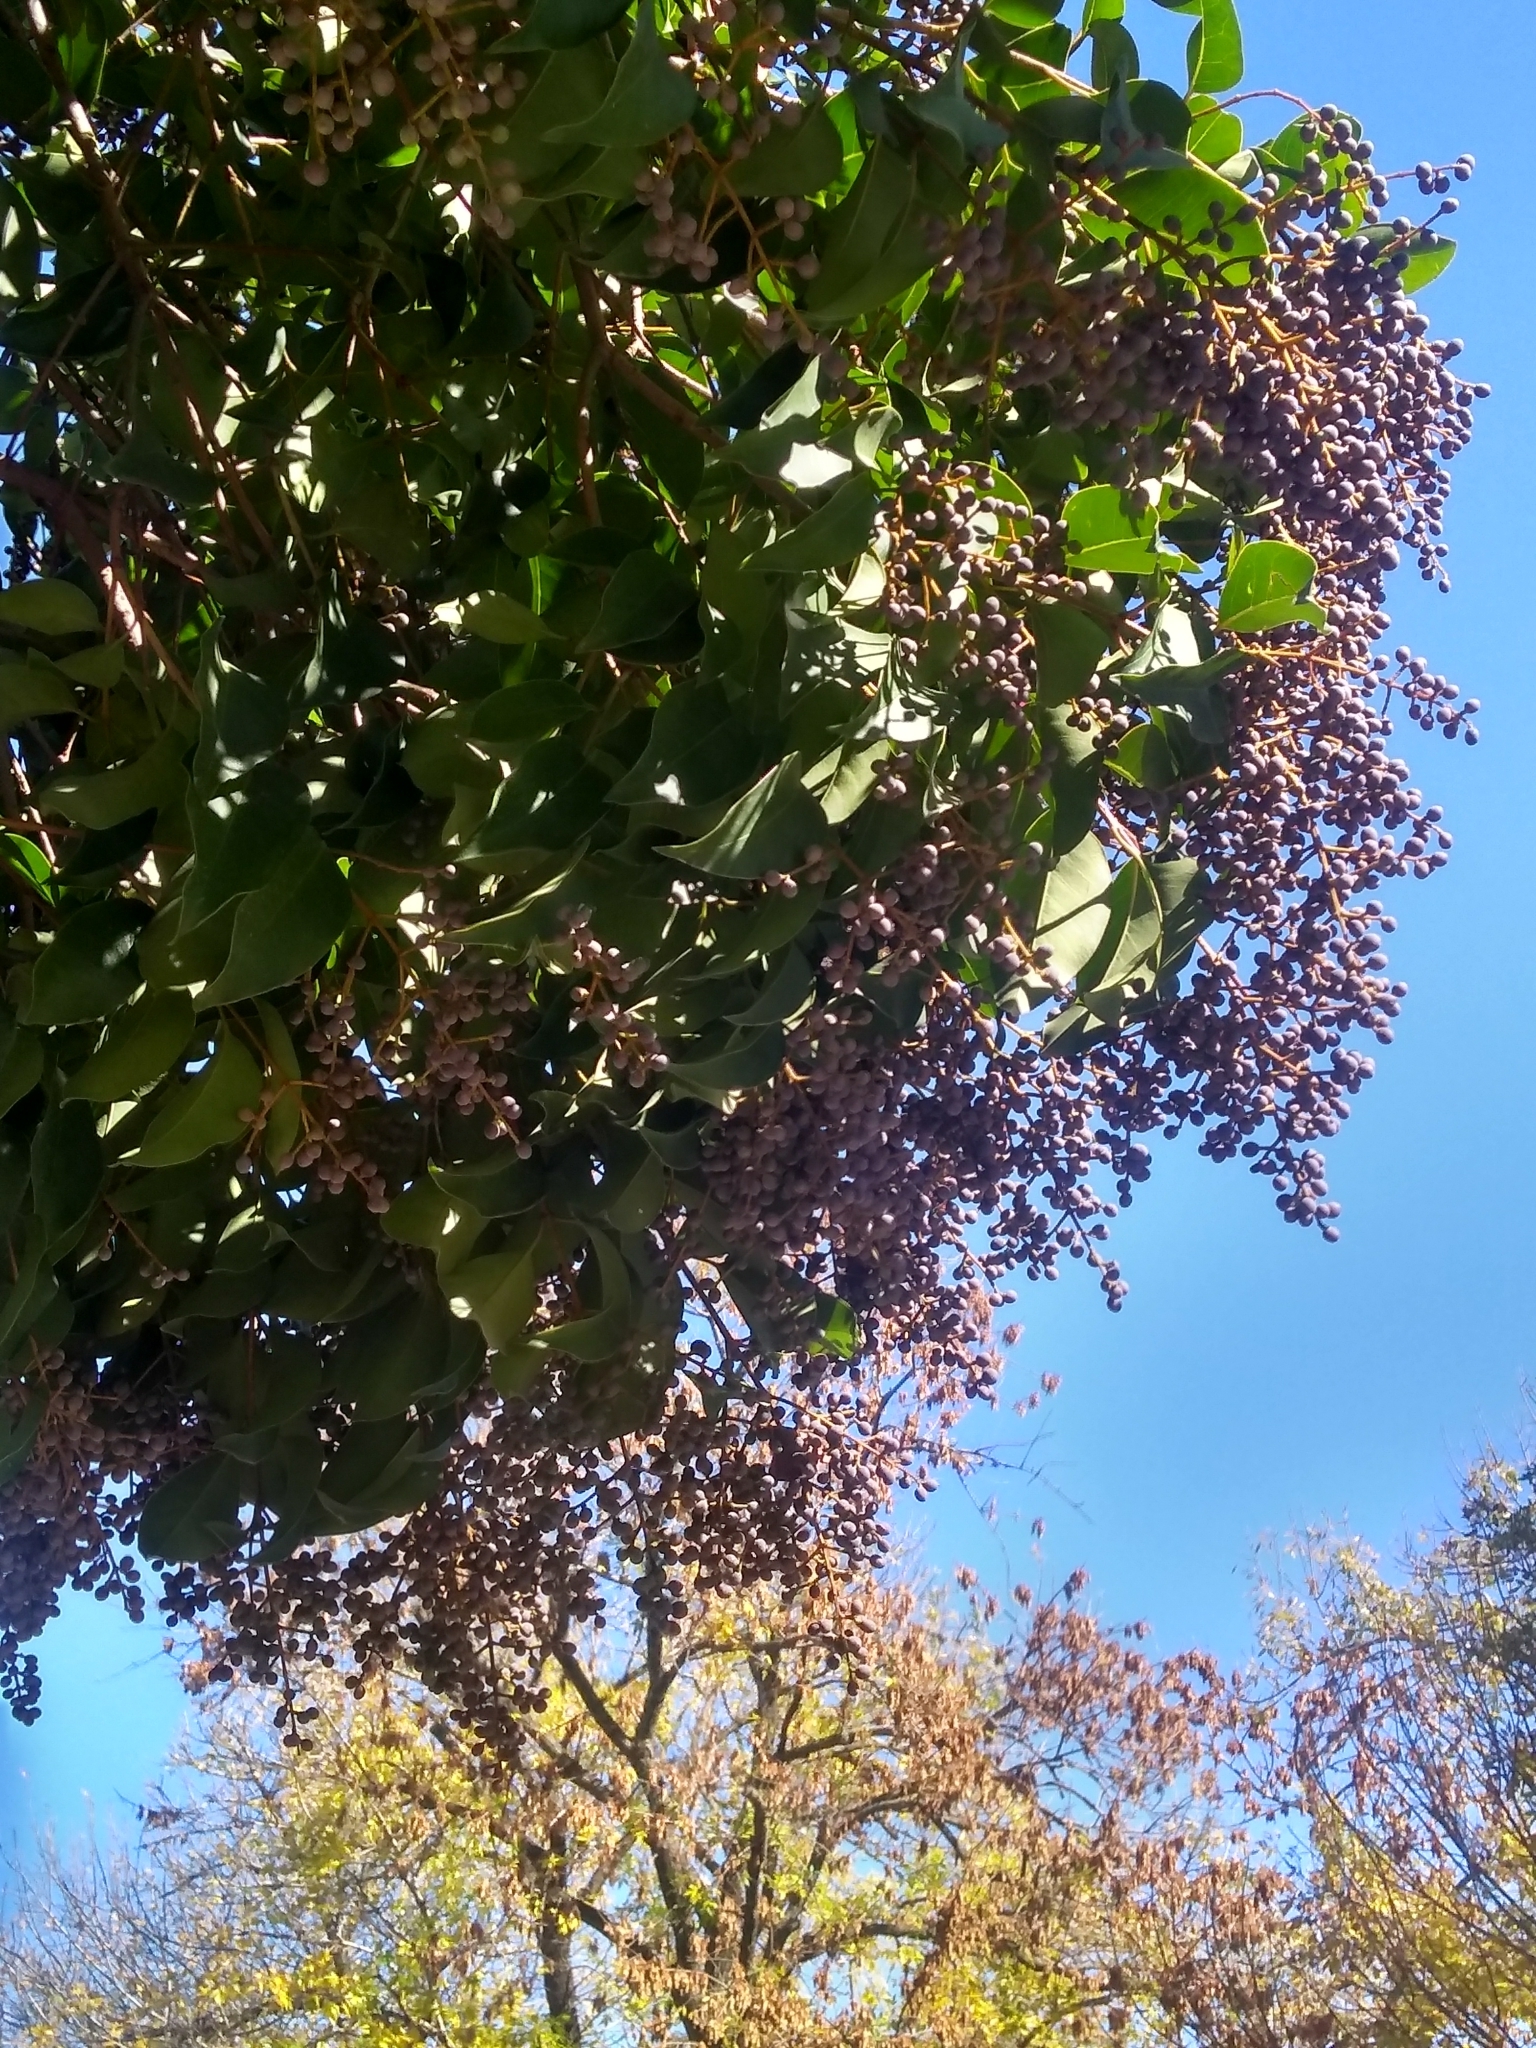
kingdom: Plantae
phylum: Tracheophyta
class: Magnoliopsida
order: Lamiales
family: Oleaceae
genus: Ligustrum
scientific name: Ligustrum lucidum
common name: Glossy privet
